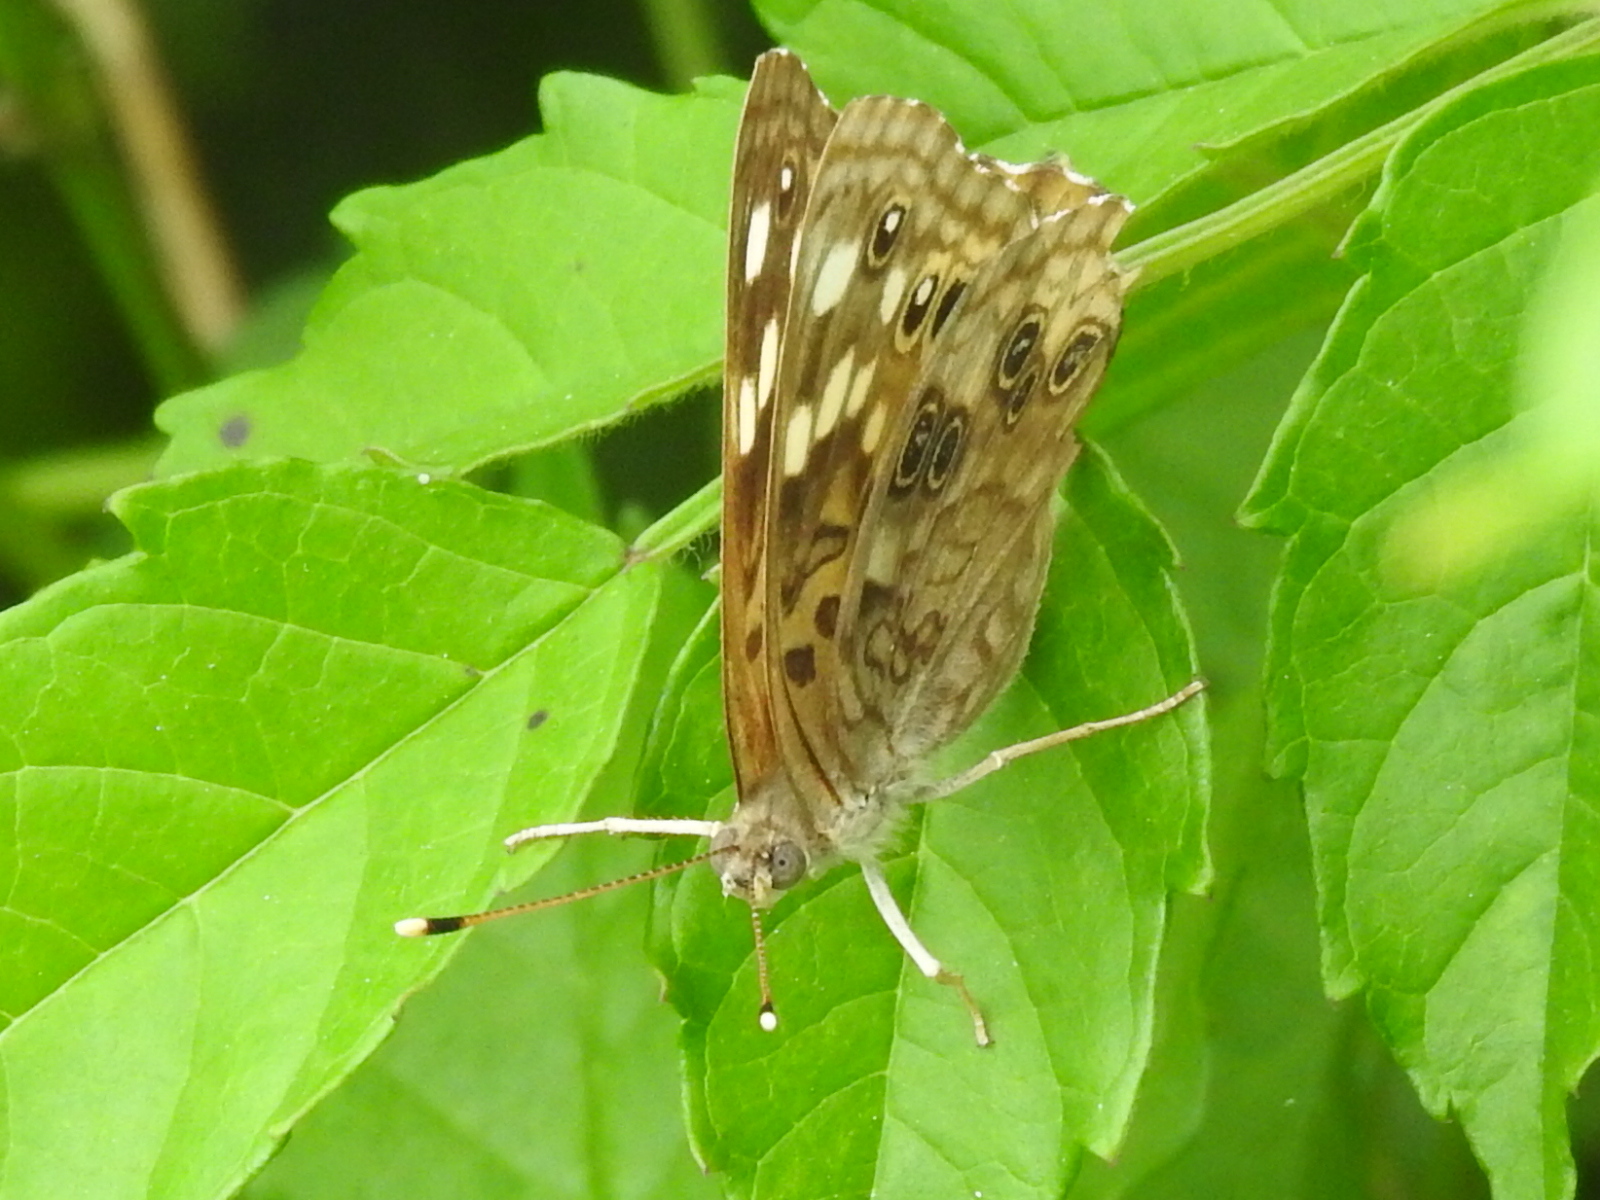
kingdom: Animalia
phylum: Arthropoda
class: Insecta
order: Lepidoptera
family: Nymphalidae
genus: Asterocampa
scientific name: Asterocampa celtis
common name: Hackberry emperor
